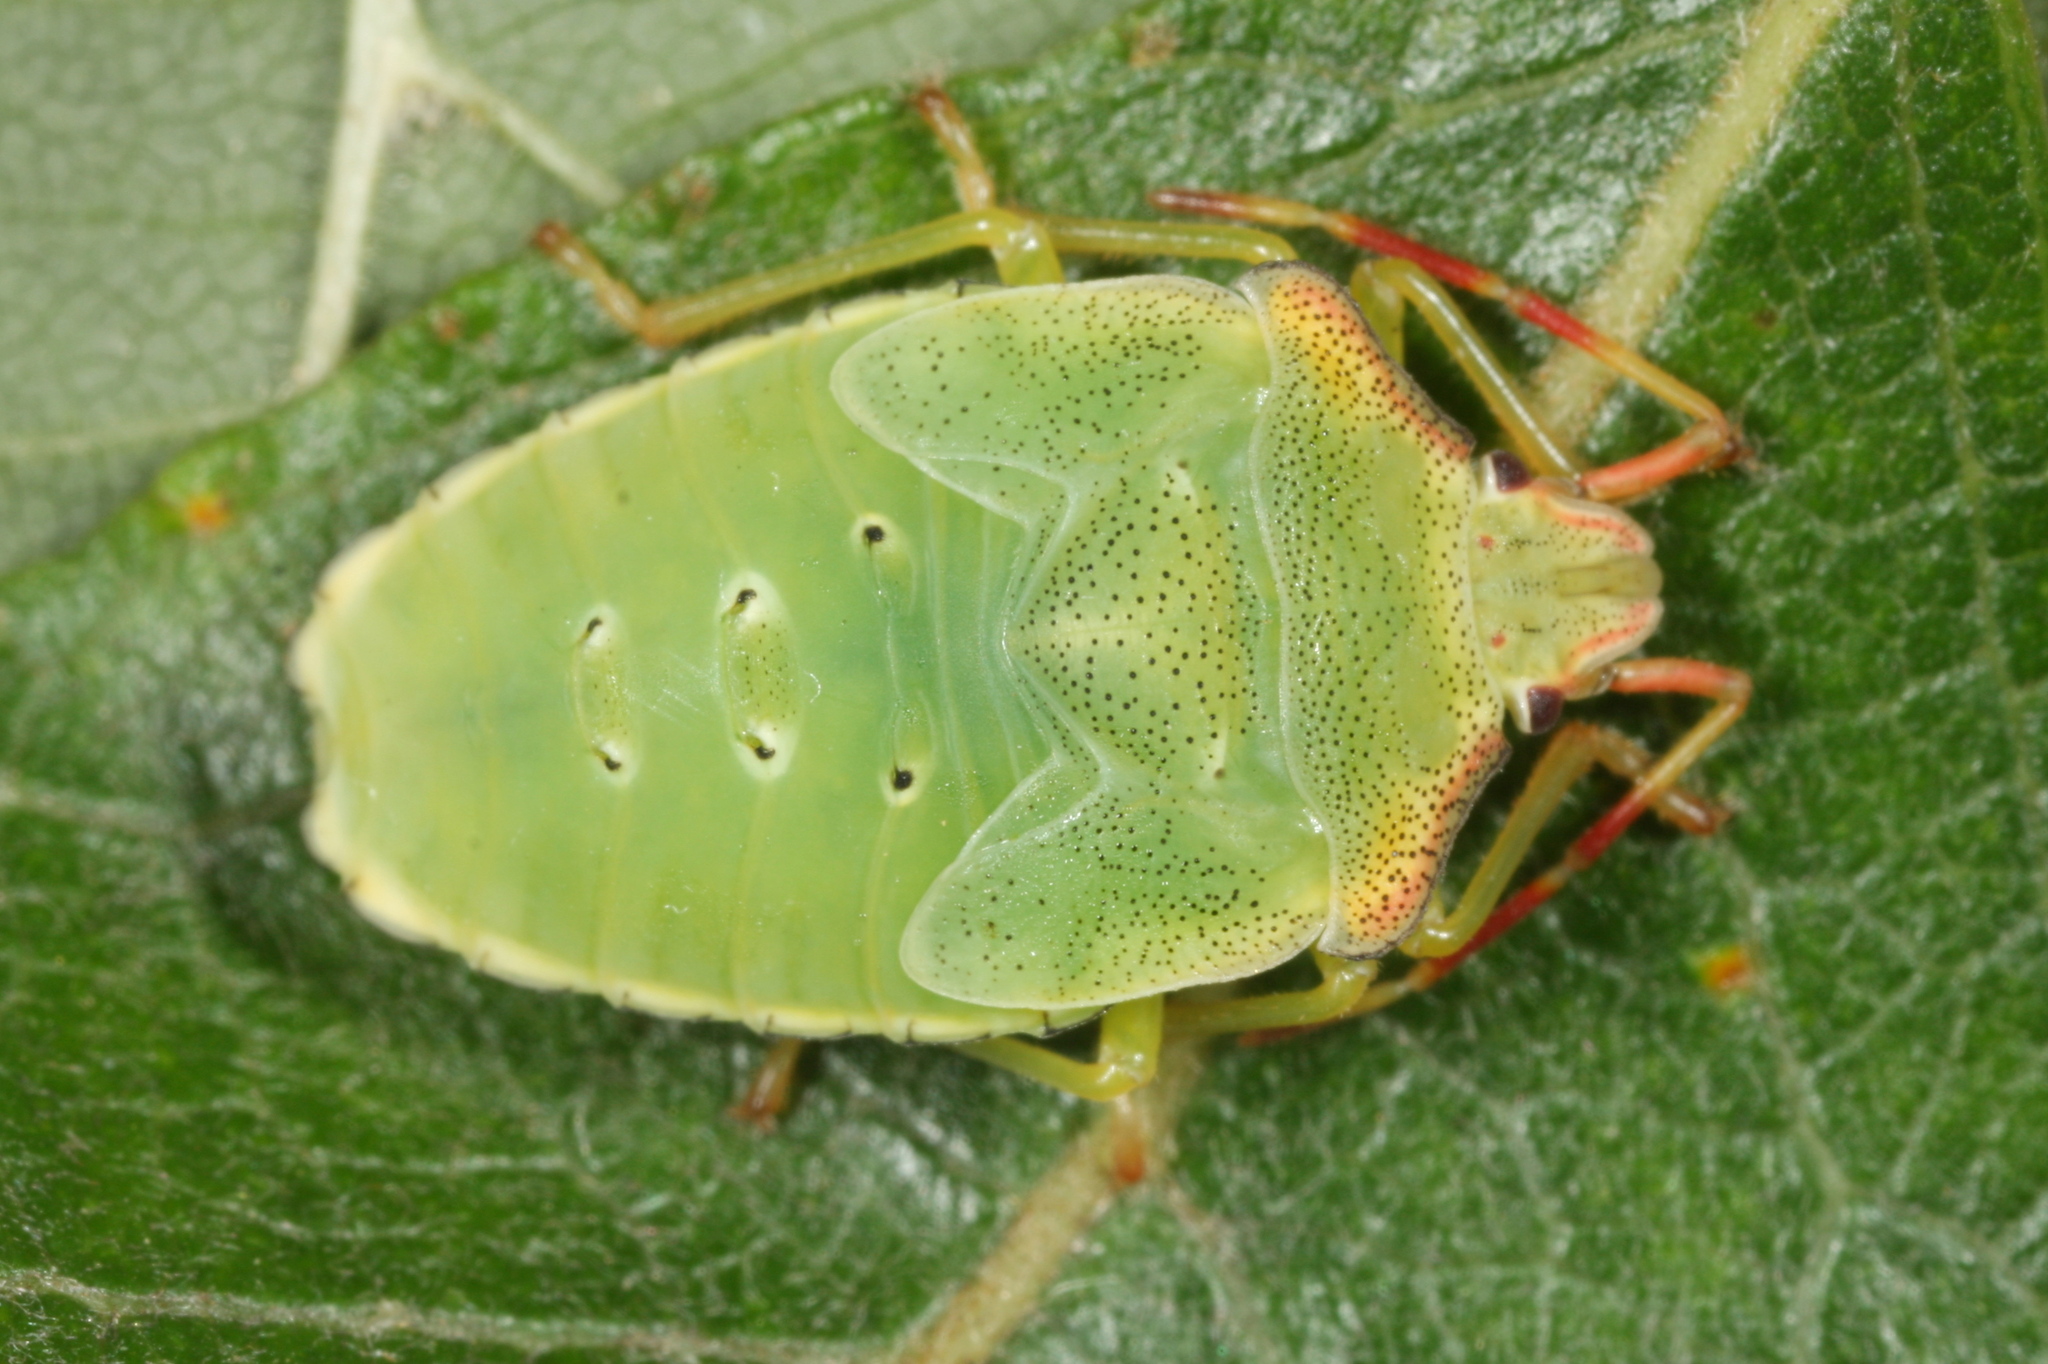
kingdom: Animalia
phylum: Arthropoda
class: Insecta
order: Hemiptera
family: Acanthosomatidae
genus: Acanthosoma
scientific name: Acanthosoma haemorrhoidale
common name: Hawthorn shieldbug
